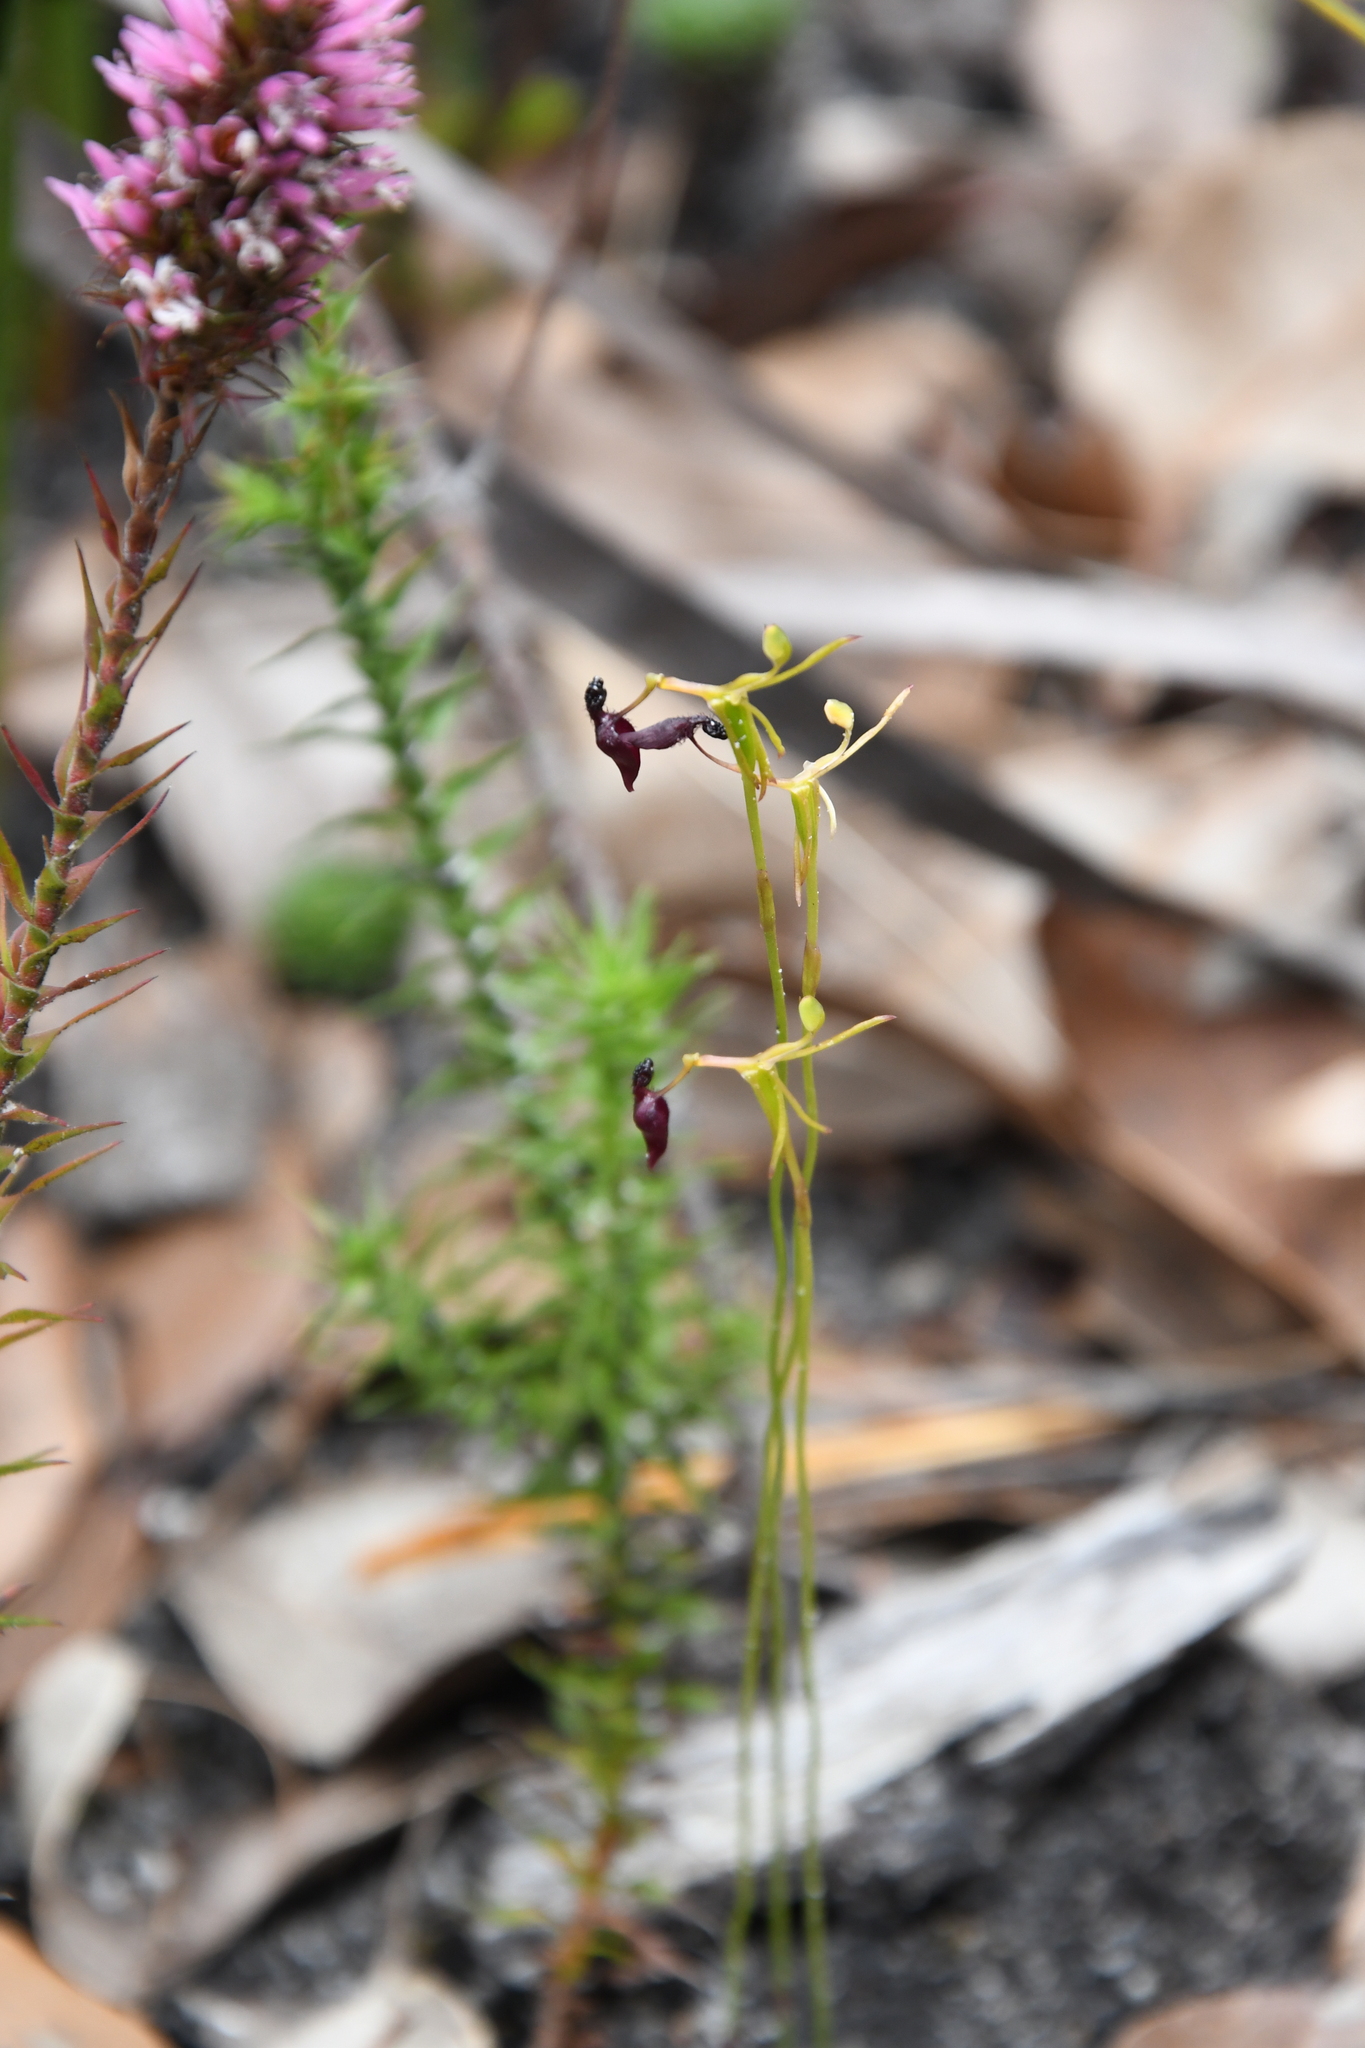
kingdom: Plantae
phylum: Tracheophyta
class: Liliopsida
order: Asparagales
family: Orchidaceae
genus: Drakaea
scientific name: Drakaea glyptodon
